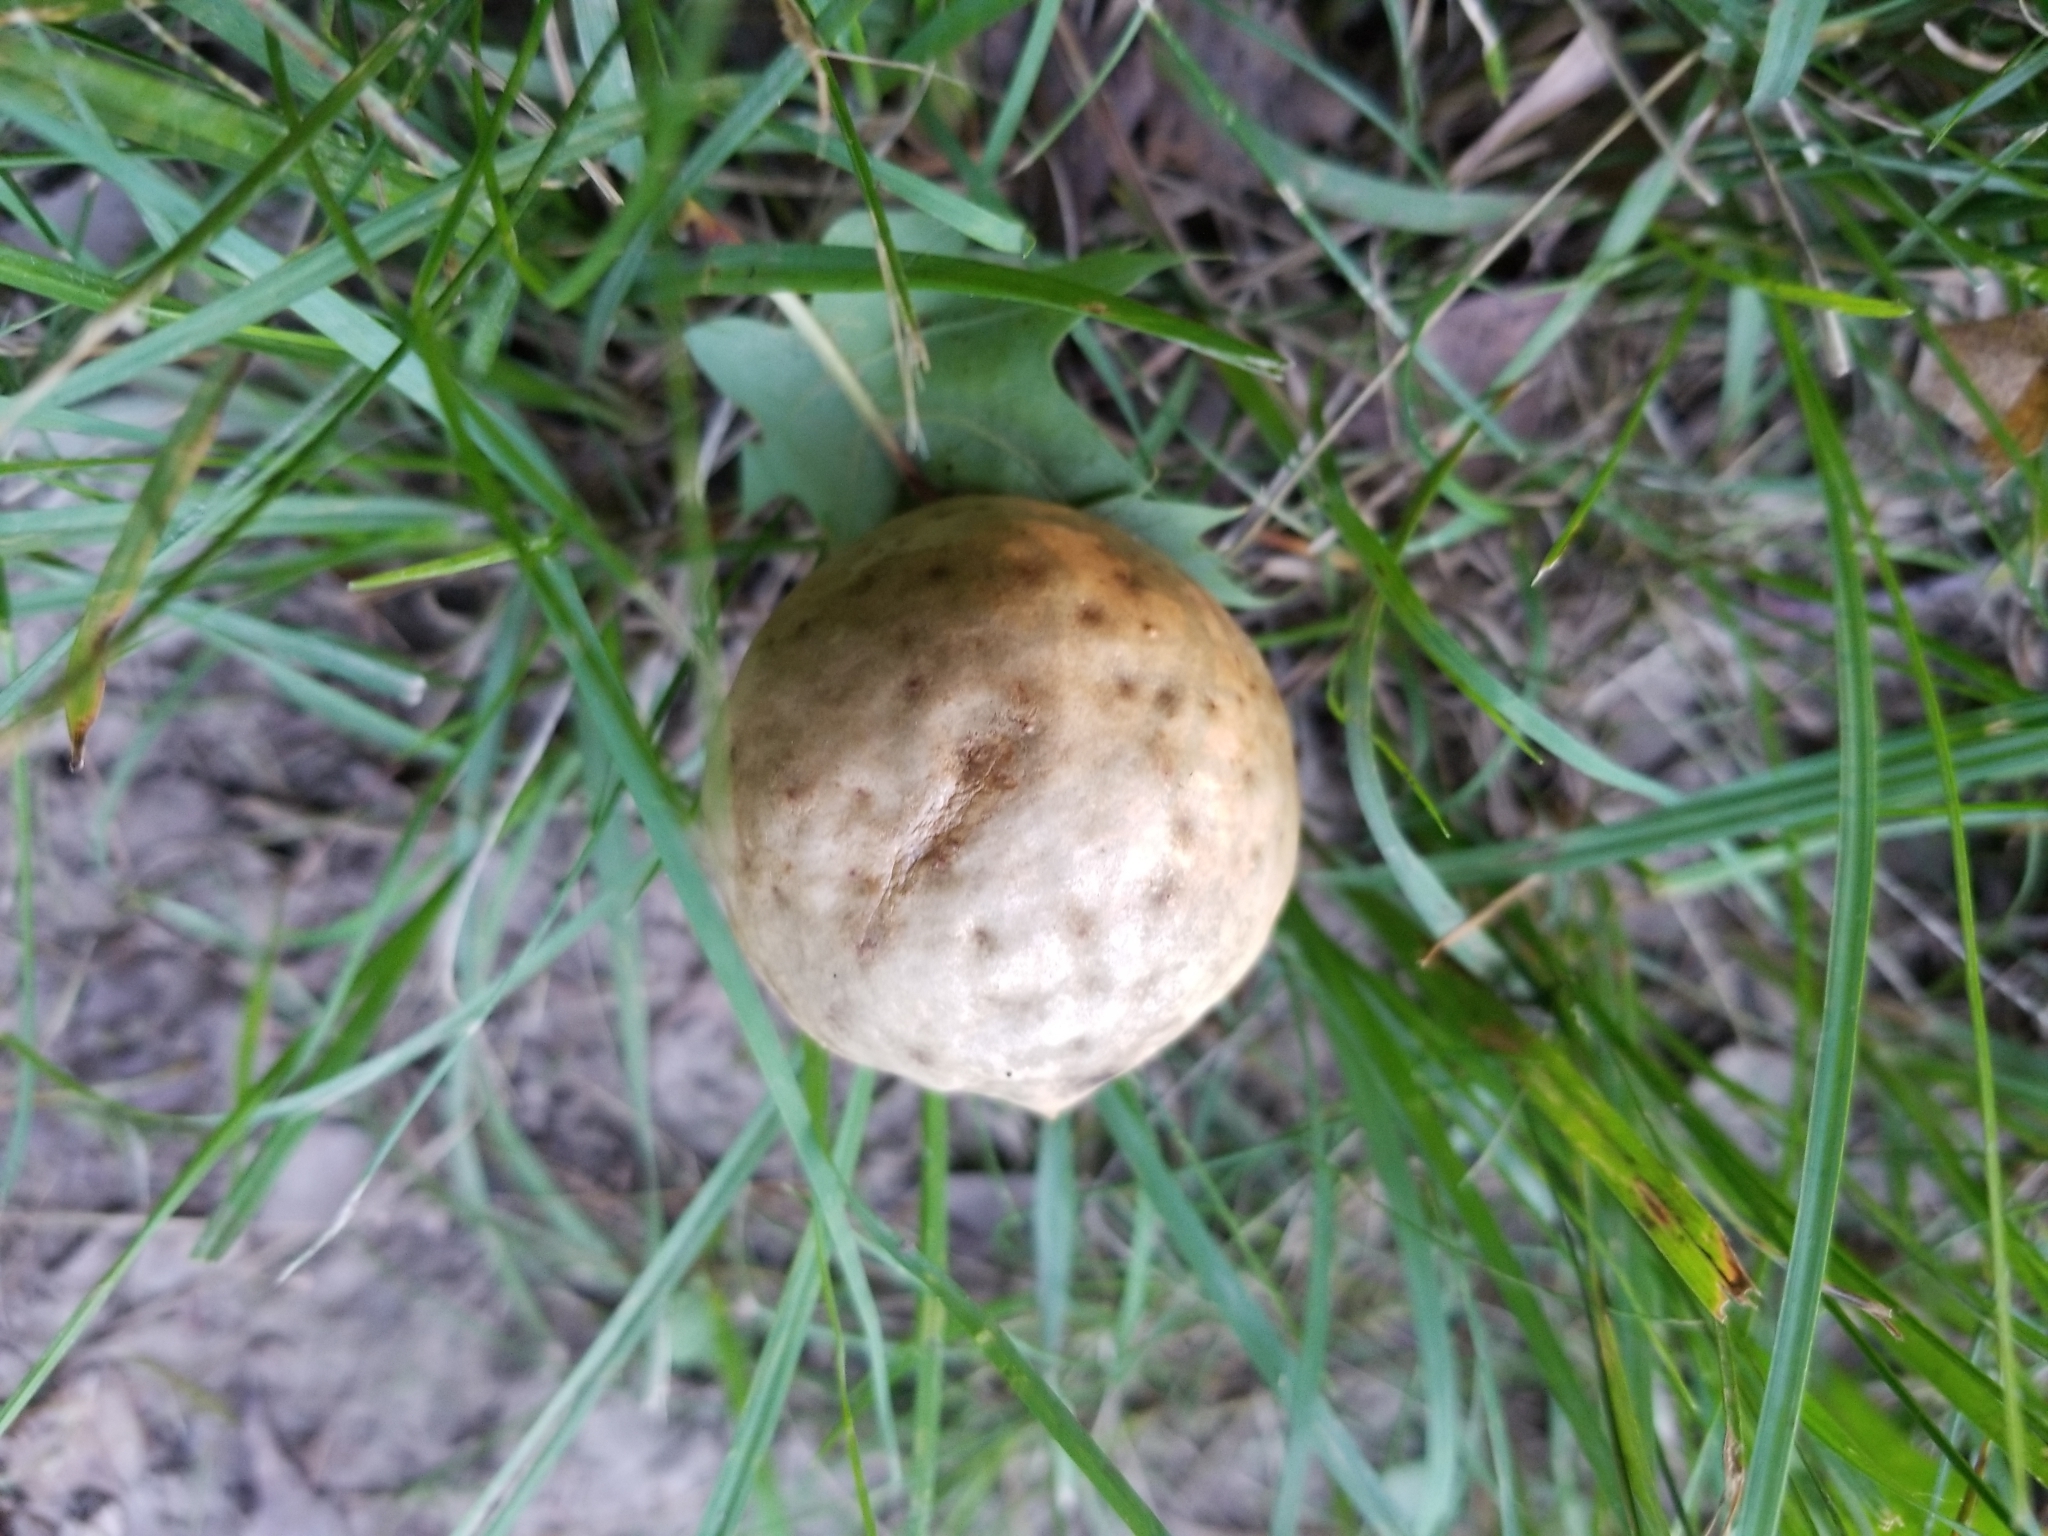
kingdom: Animalia
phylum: Arthropoda
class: Insecta
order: Hymenoptera
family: Cynipidae
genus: Amphibolips
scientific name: Amphibolips
